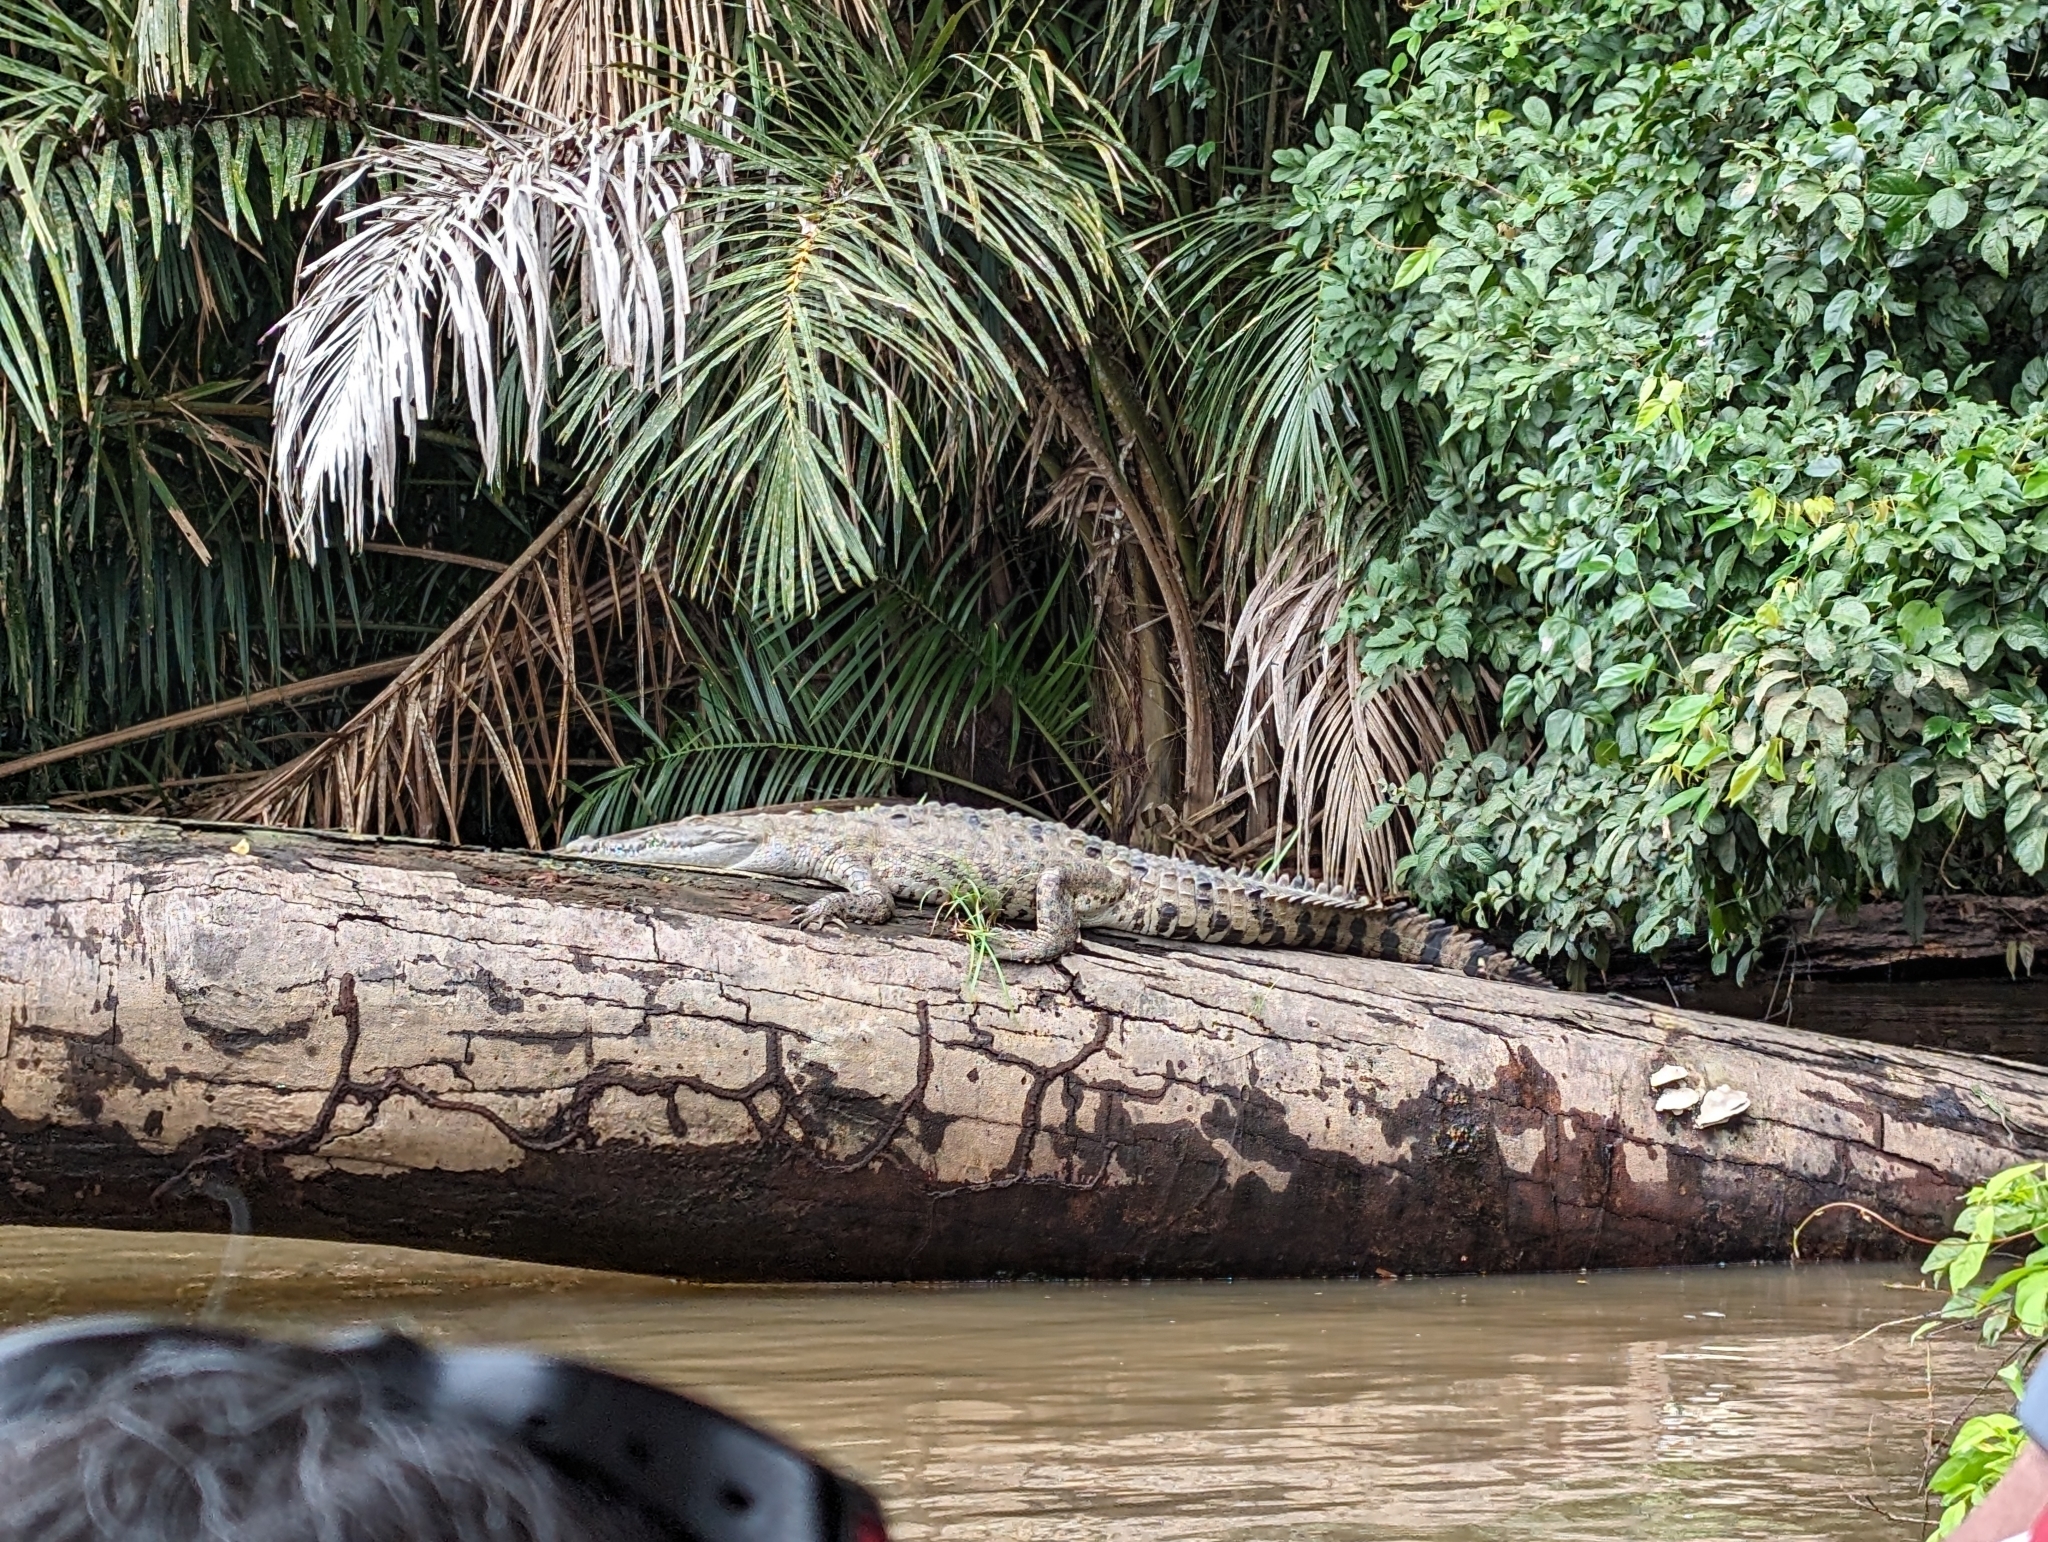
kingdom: Animalia
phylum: Chordata
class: Crocodylia
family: Crocodylidae
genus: Crocodylus
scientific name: Crocodylus acutus
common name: American crocodile
